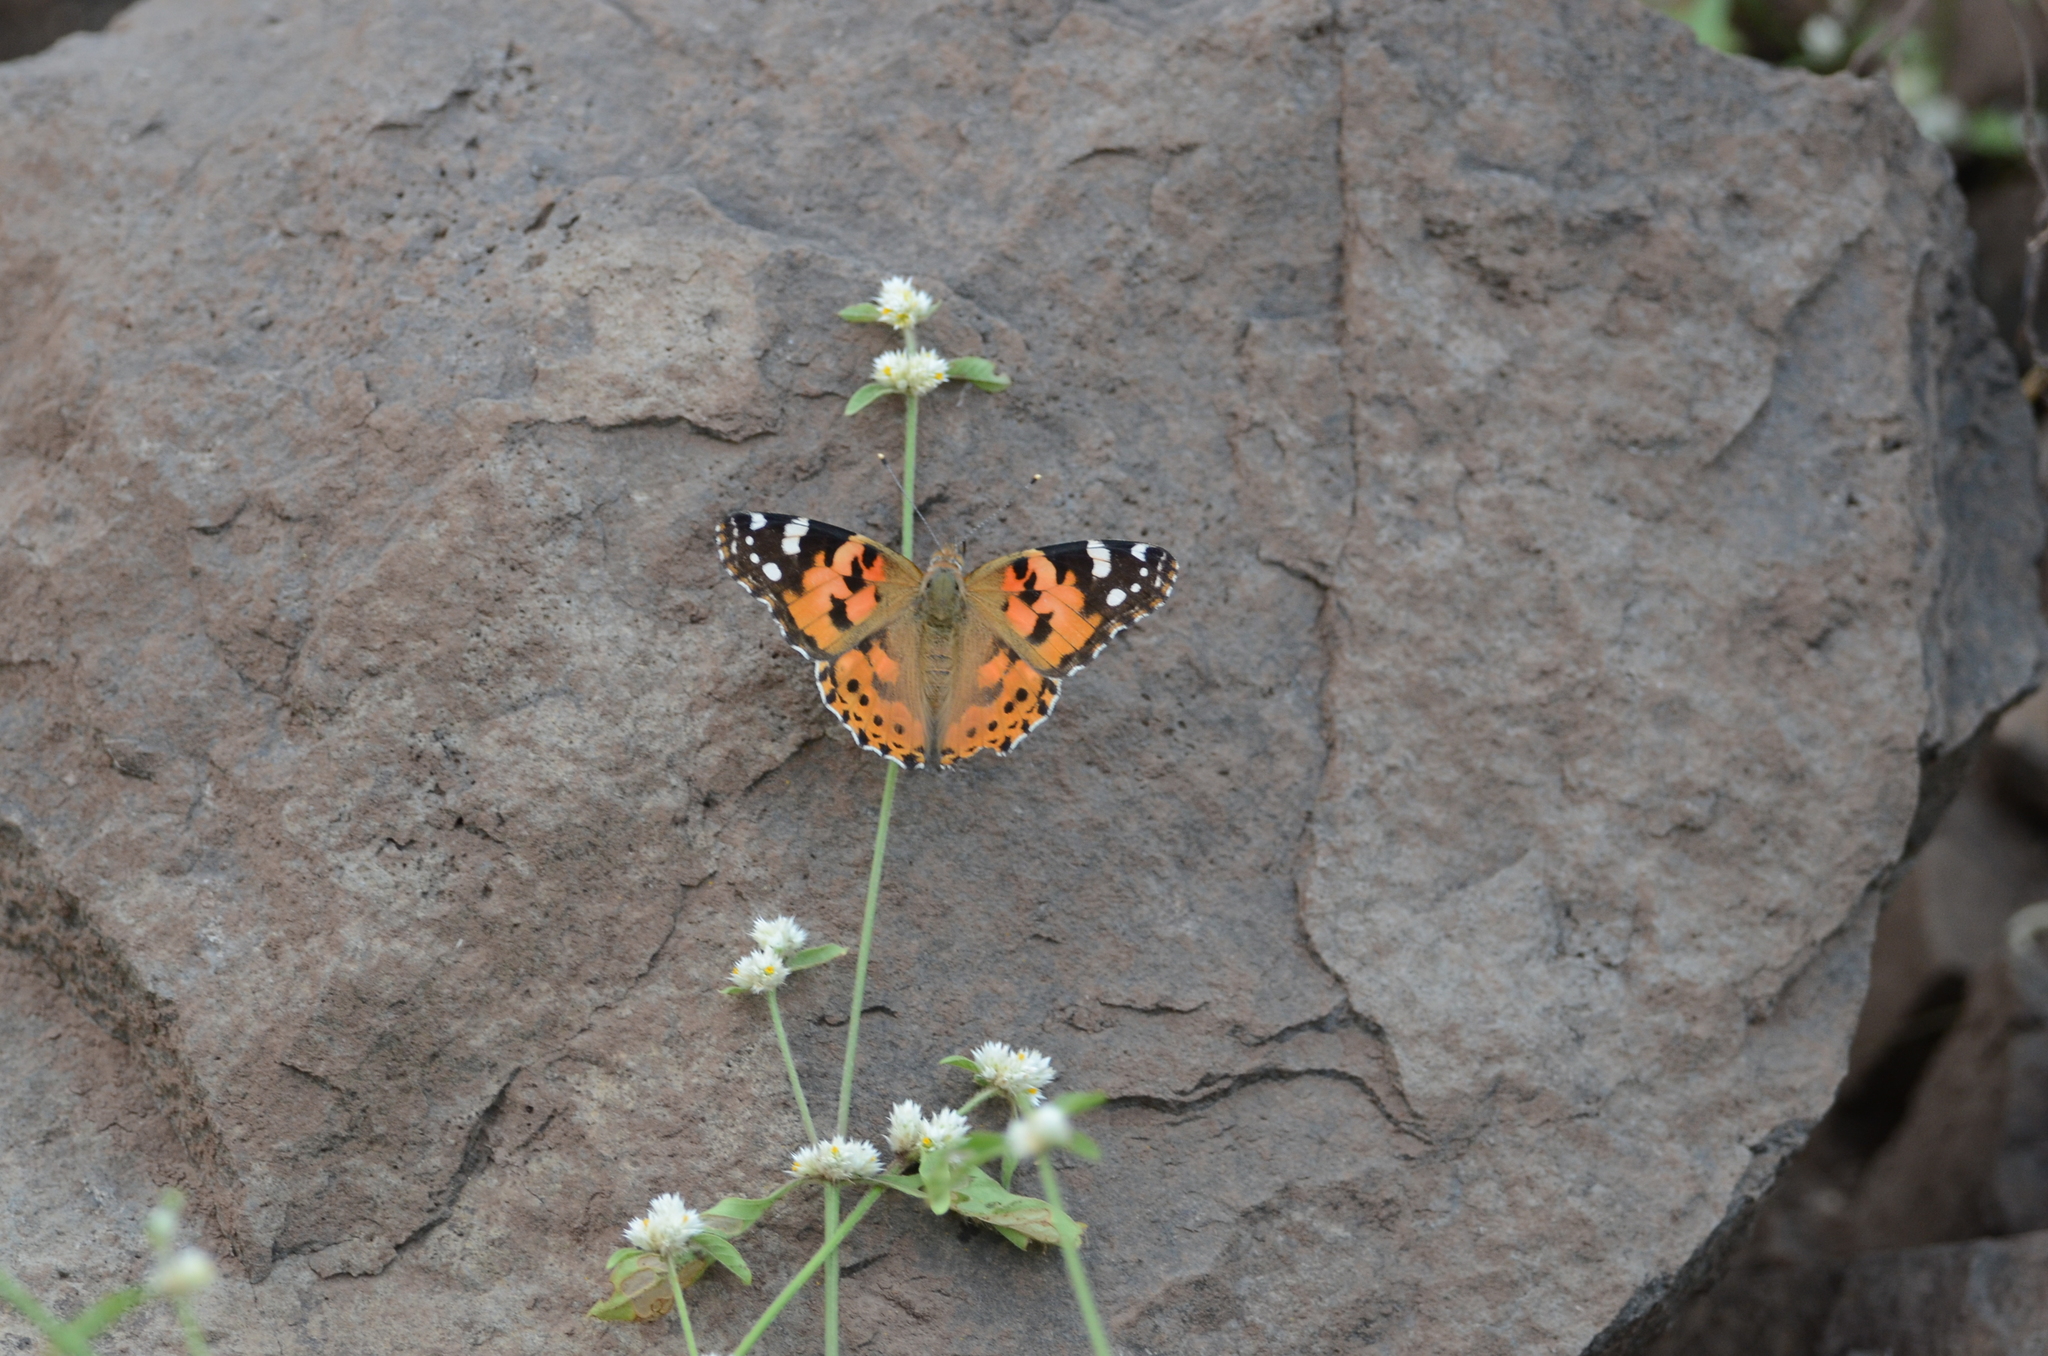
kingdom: Animalia
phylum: Arthropoda
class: Insecta
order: Lepidoptera
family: Nymphalidae
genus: Vanessa
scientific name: Vanessa cardui
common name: Painted lady
